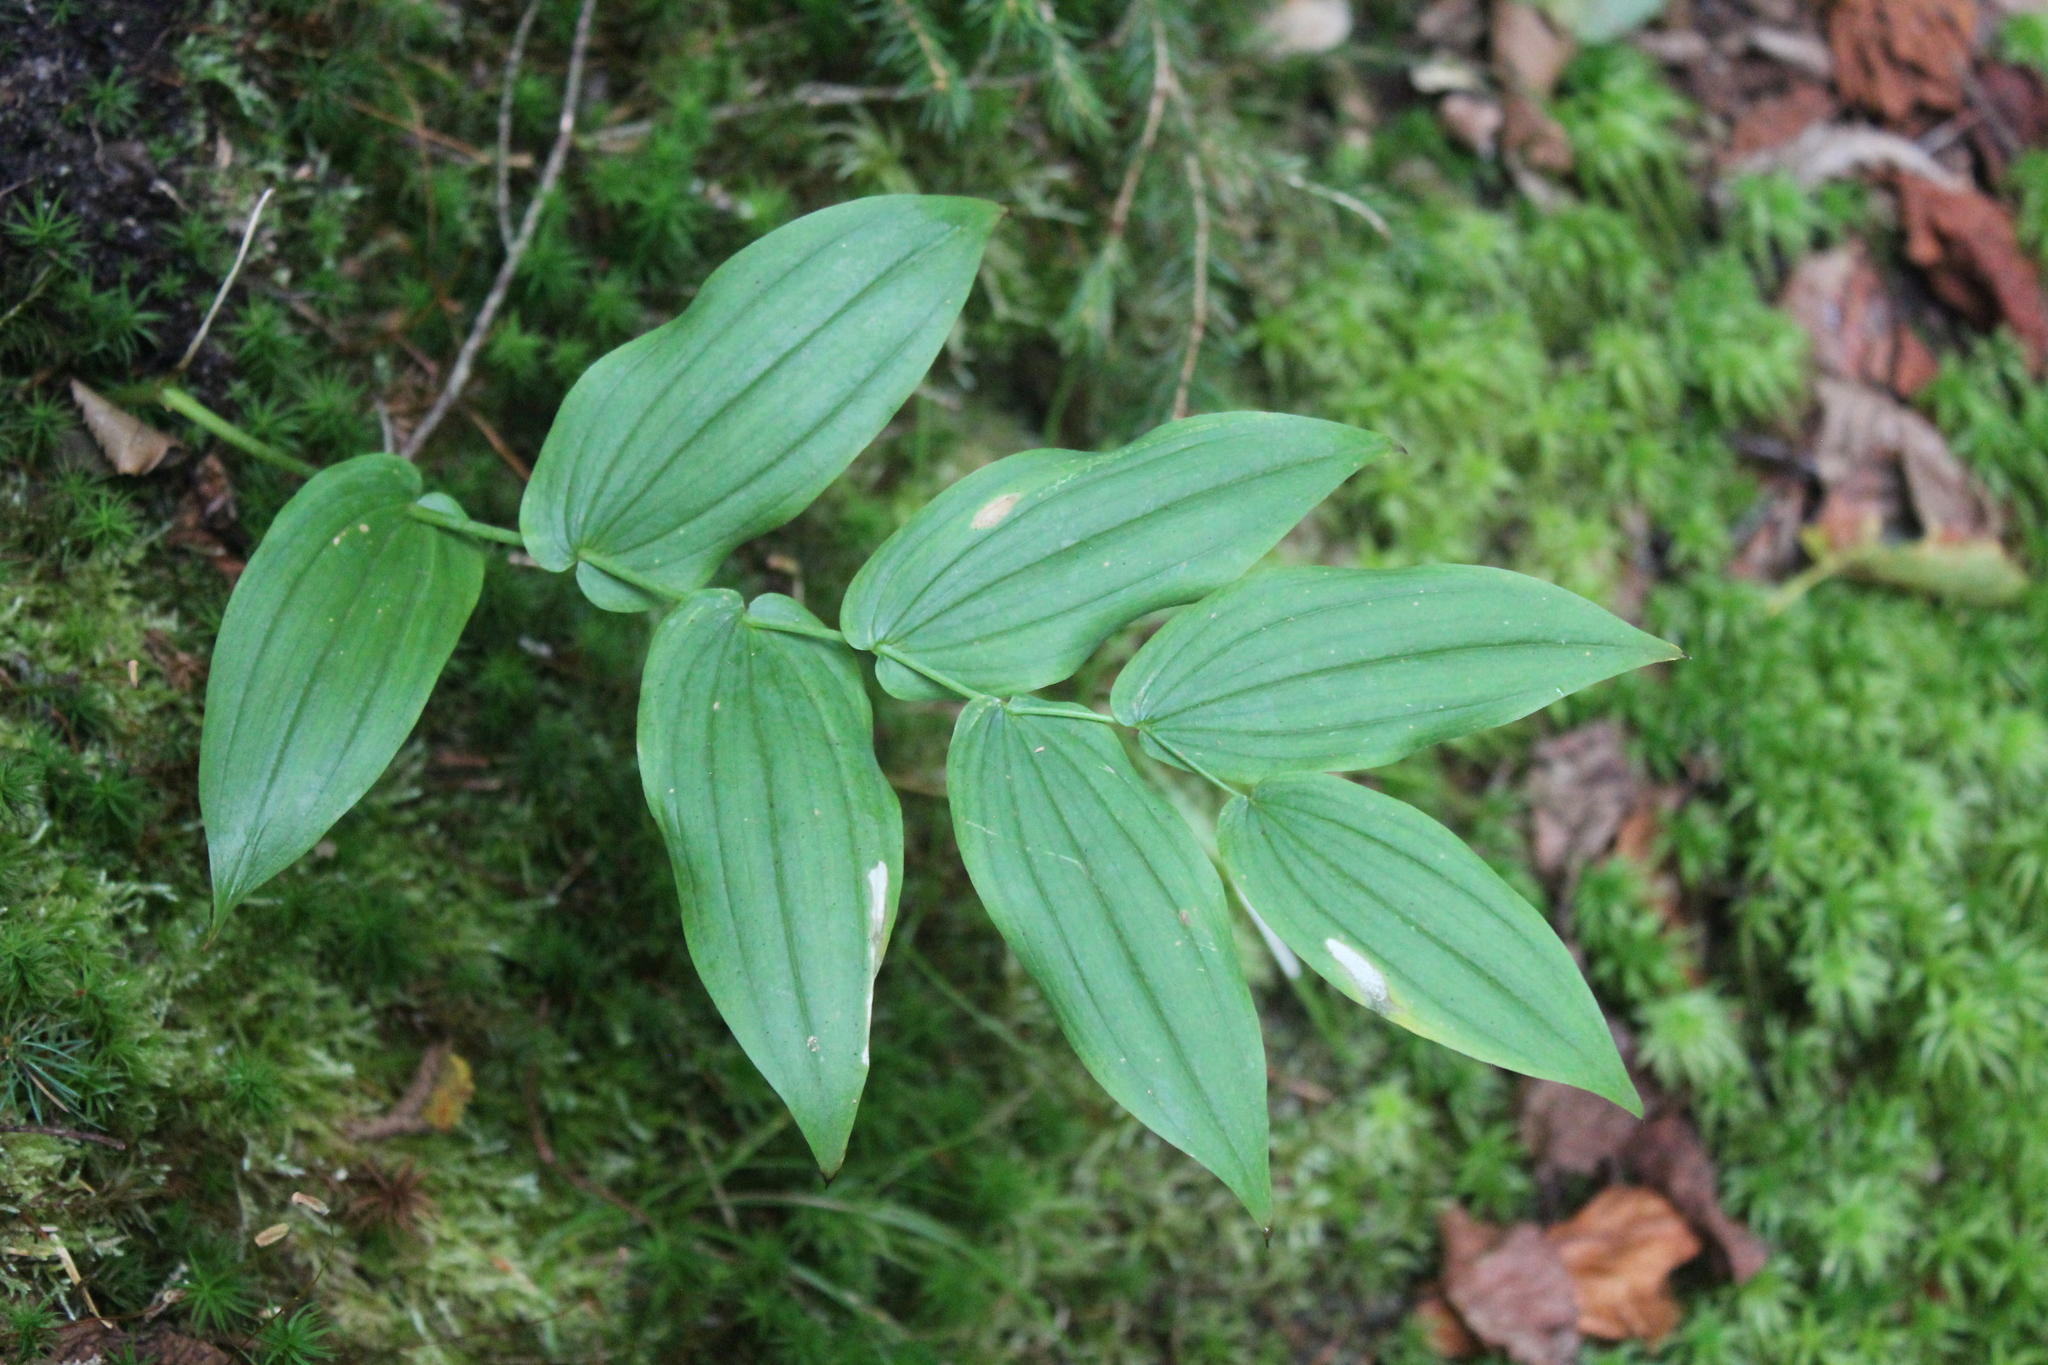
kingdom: Plantae
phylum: Tracheophyta
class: Liliopsida
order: Liliales
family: Liliaceae
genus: Streptopus
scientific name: Streptopus amplexifolius
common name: Clasp twisted stalk
